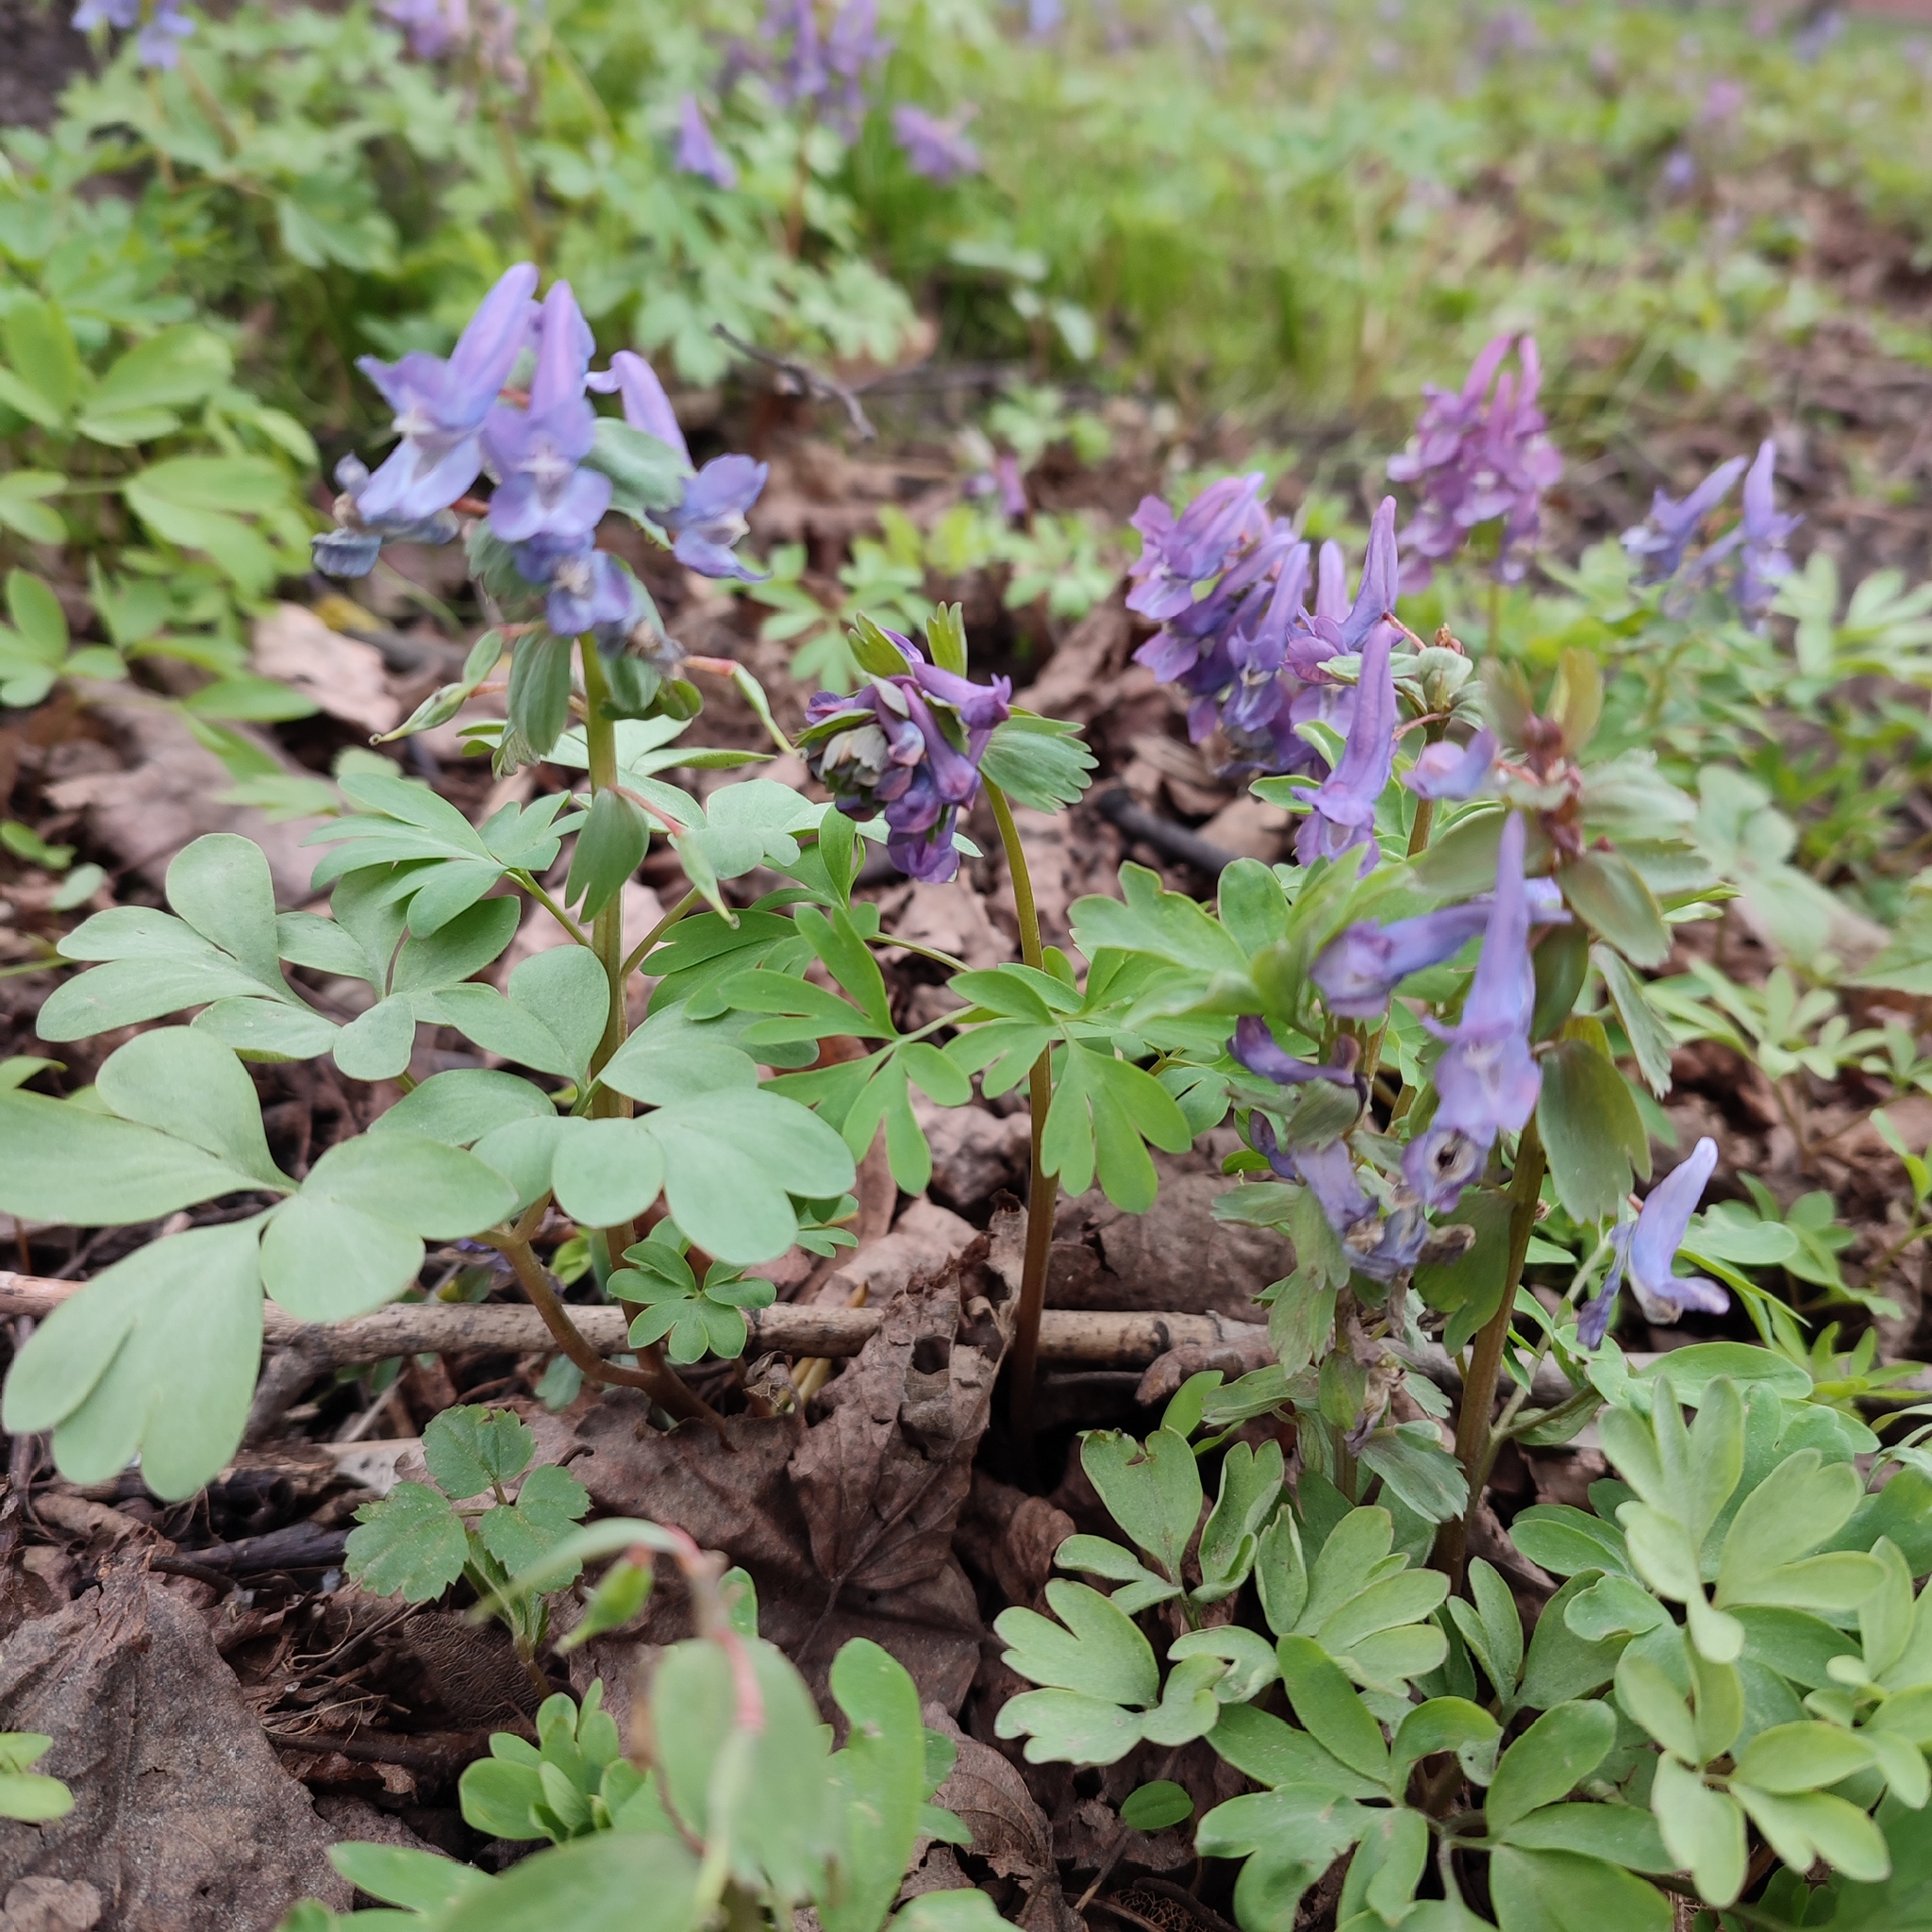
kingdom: Plantae
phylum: Tracheophyta
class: Magnoliopsida
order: Ranunculales
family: Papaveraceae
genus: Corydalis
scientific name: Corydalis solida
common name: Bird-in-a-bush
